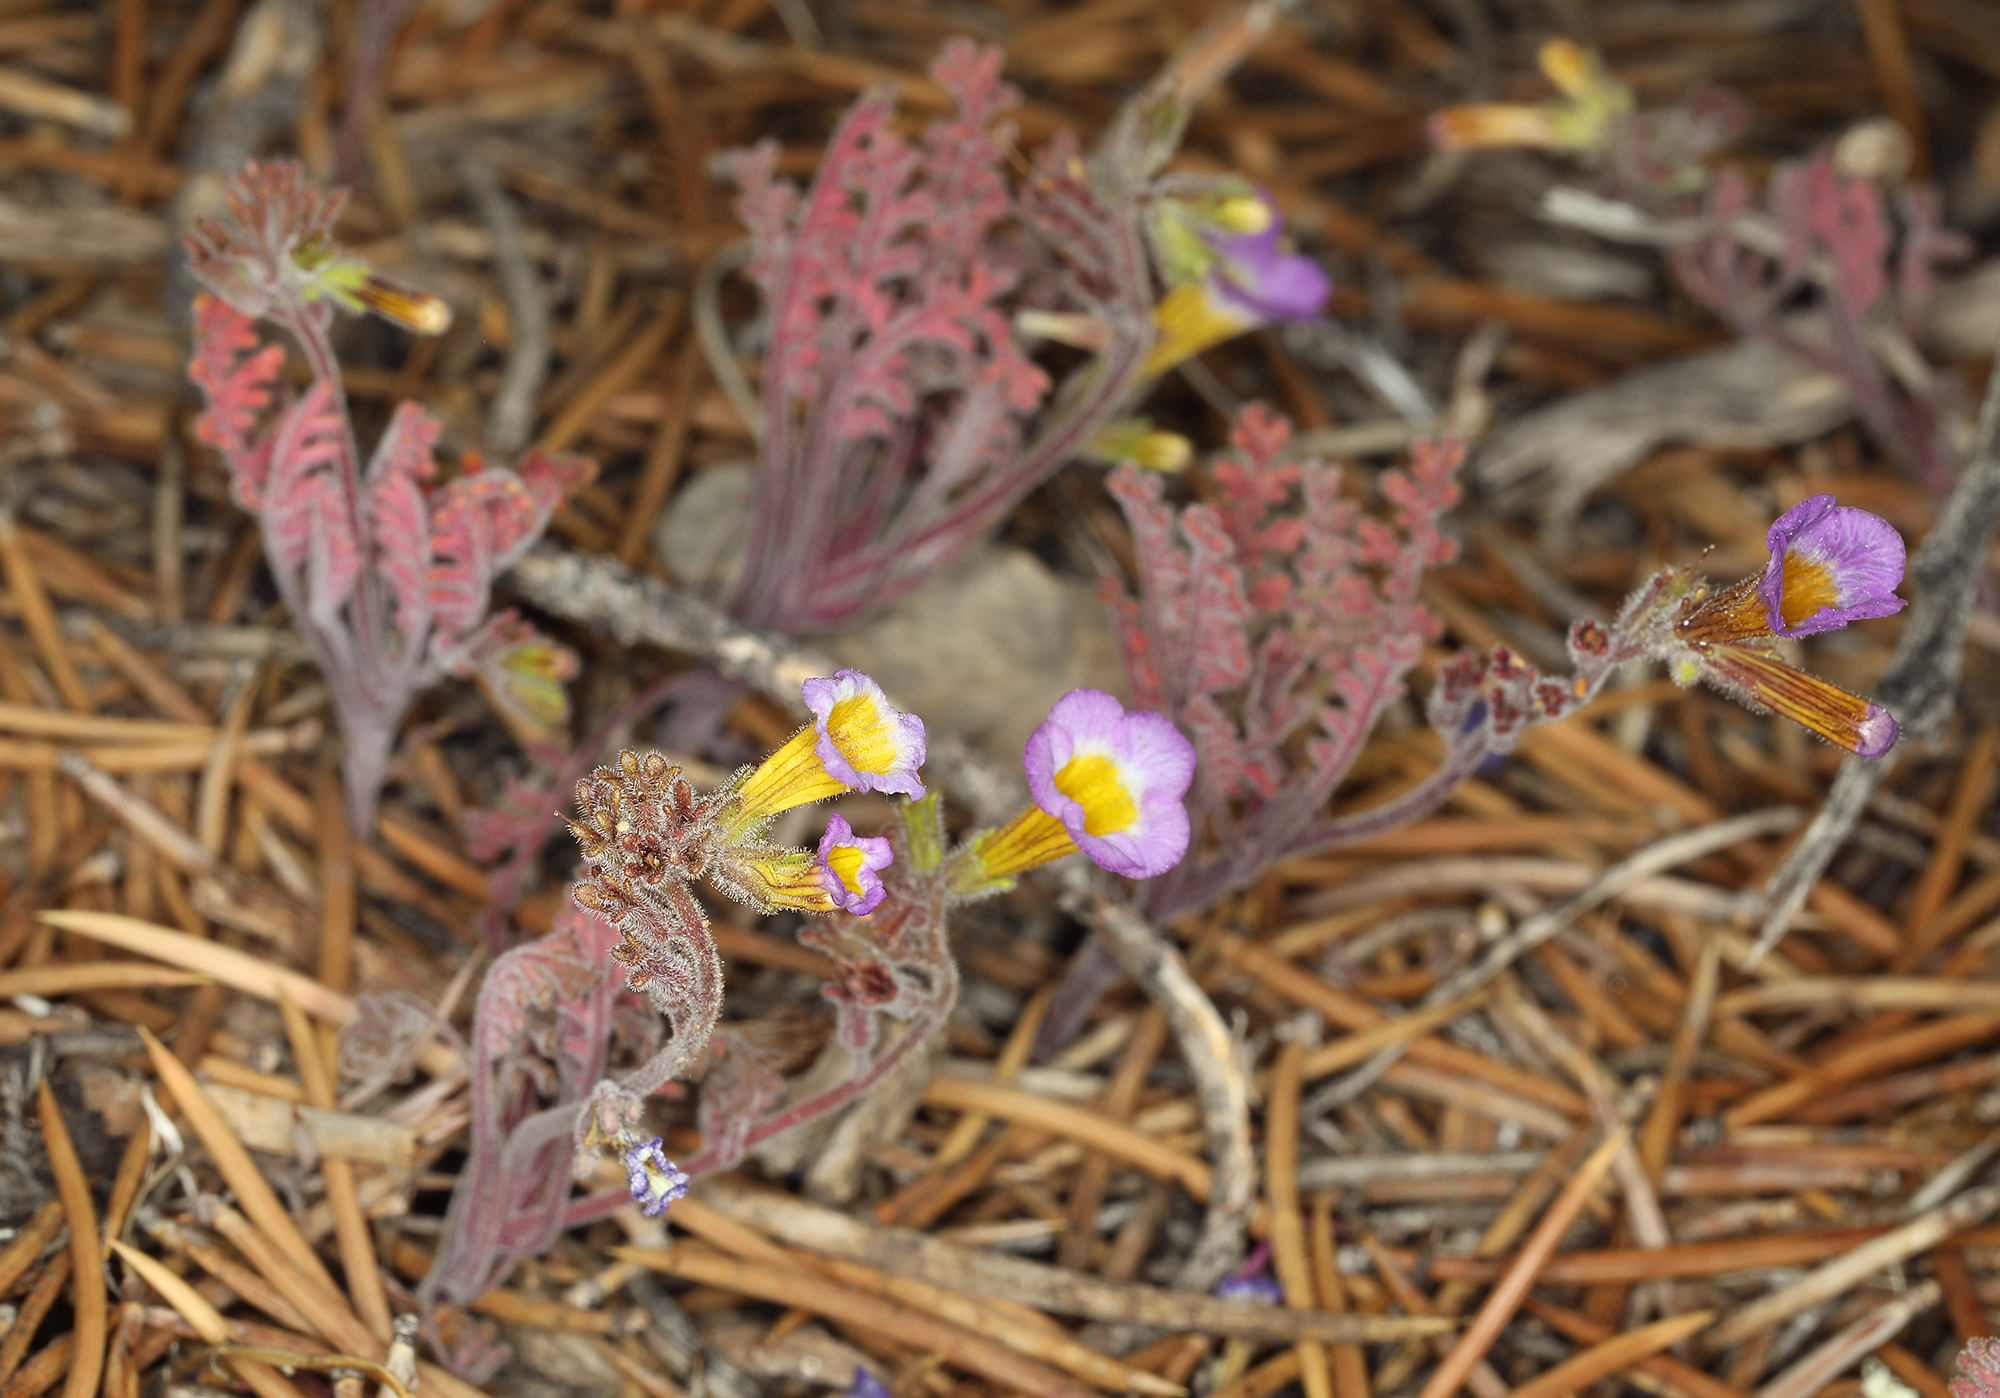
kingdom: Plantae
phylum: Tracheophyta
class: Magnoliopsida
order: Boraginales
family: Hydrophyllaceae
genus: Phacelia
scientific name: Phacelia bicolor
